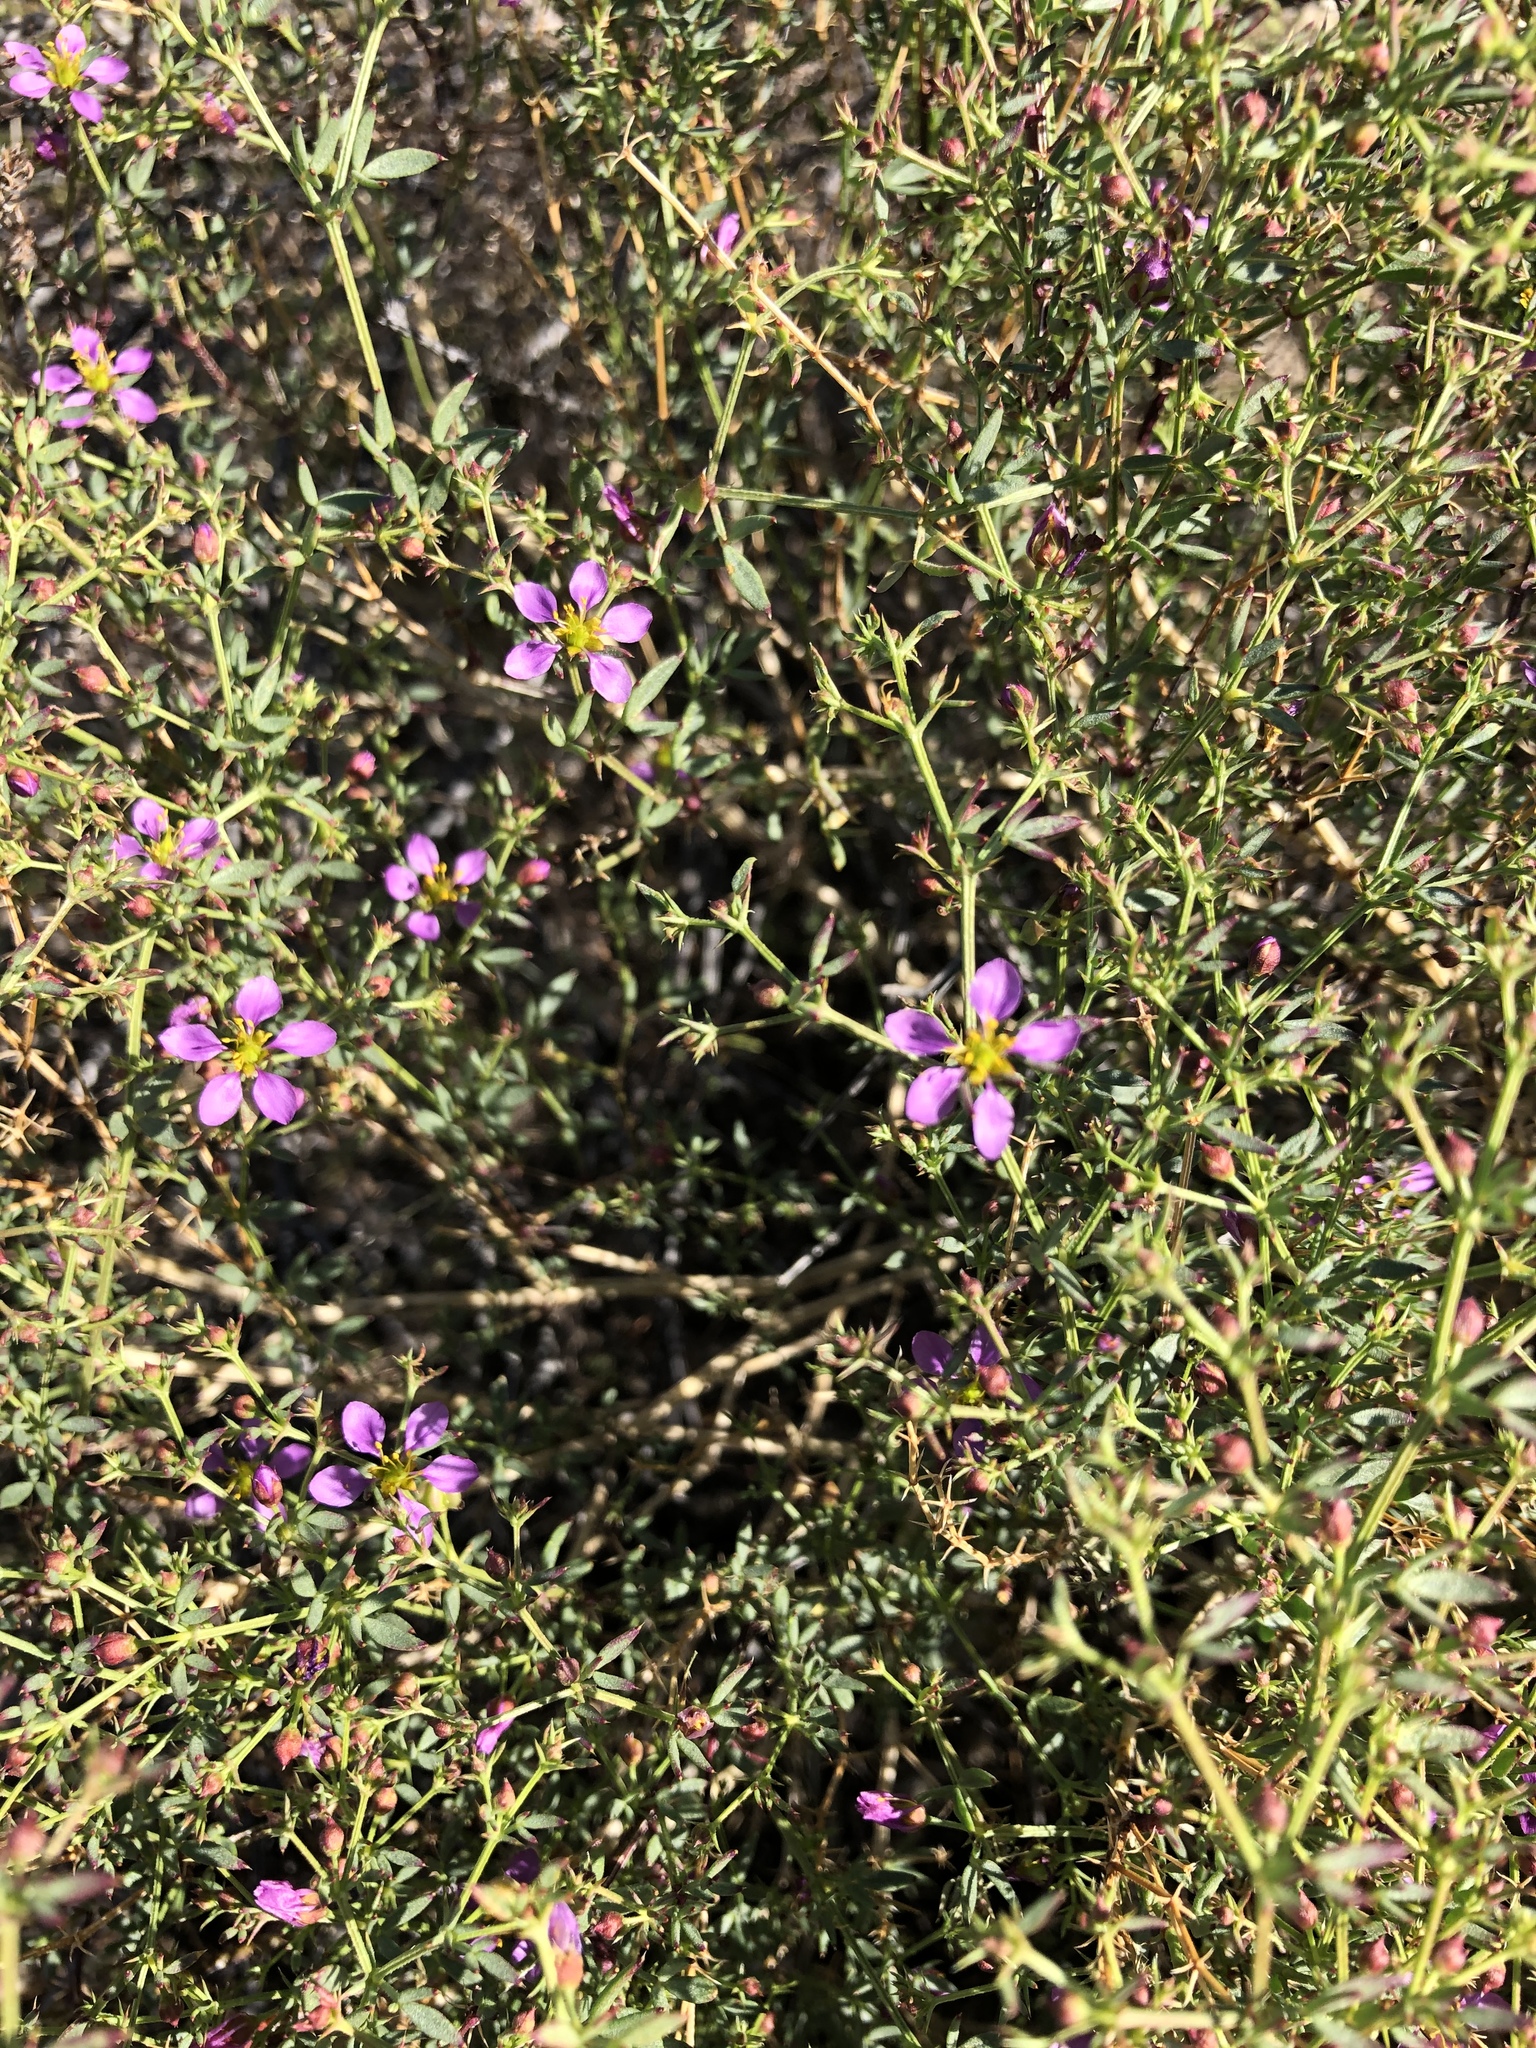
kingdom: Plantae
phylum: Tracheophyta
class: Magnoliopsida
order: Zygophyllales
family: Zygophyllaceae
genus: Fagonia
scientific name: Fagonia laevis
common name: California fagonbush
